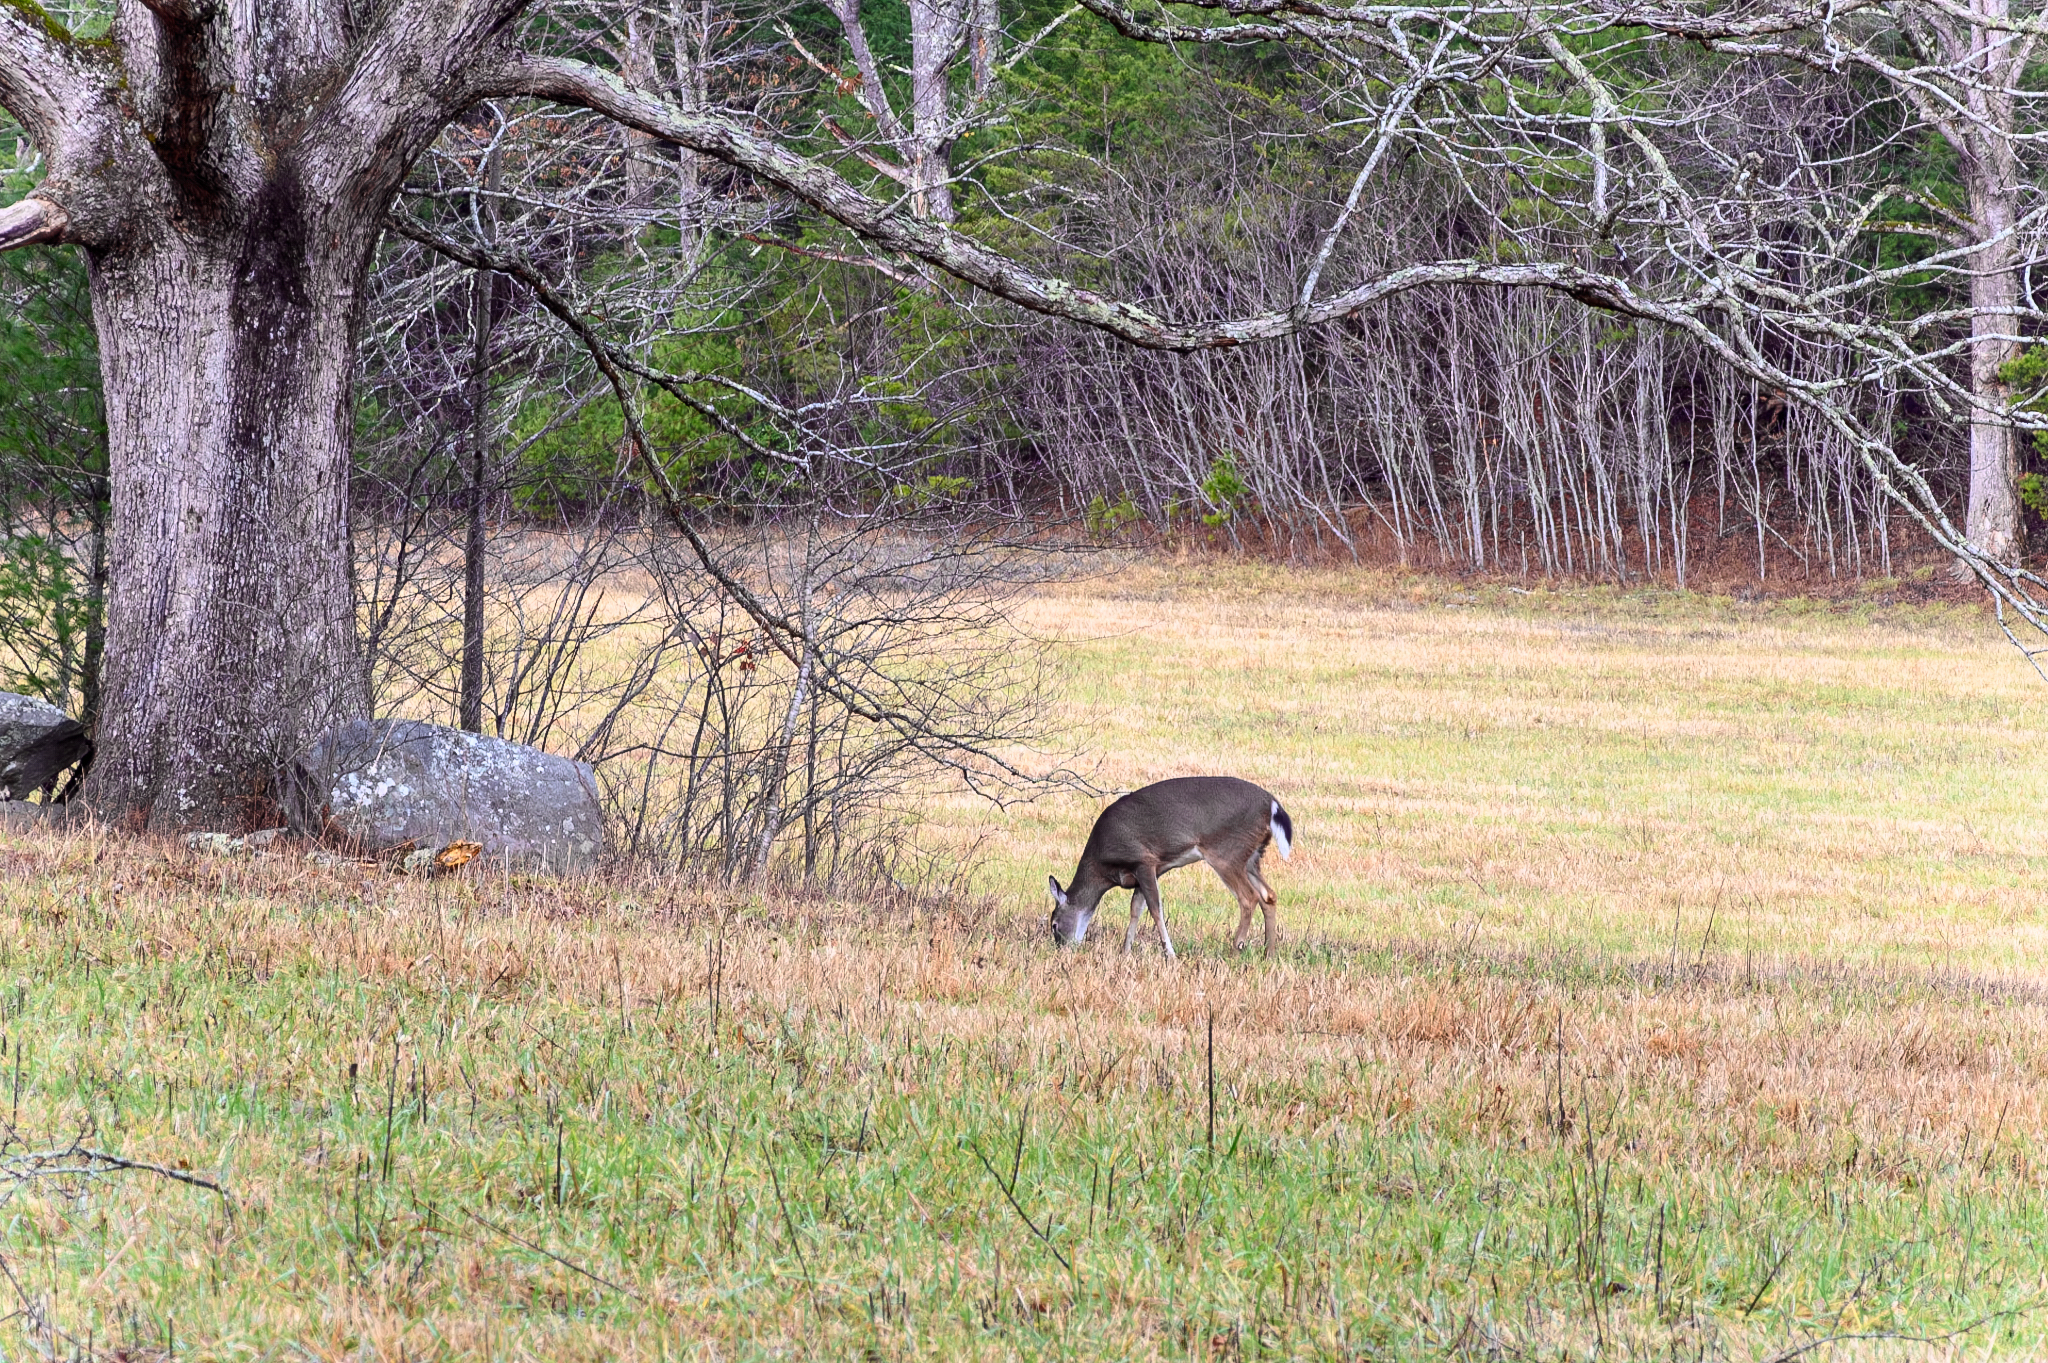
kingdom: Animalia
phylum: Chordata
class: Mammalia
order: Artiodactyla
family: Cervidae
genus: Odocoileus
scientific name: Odocoileus virginianus
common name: White-tailed deer
